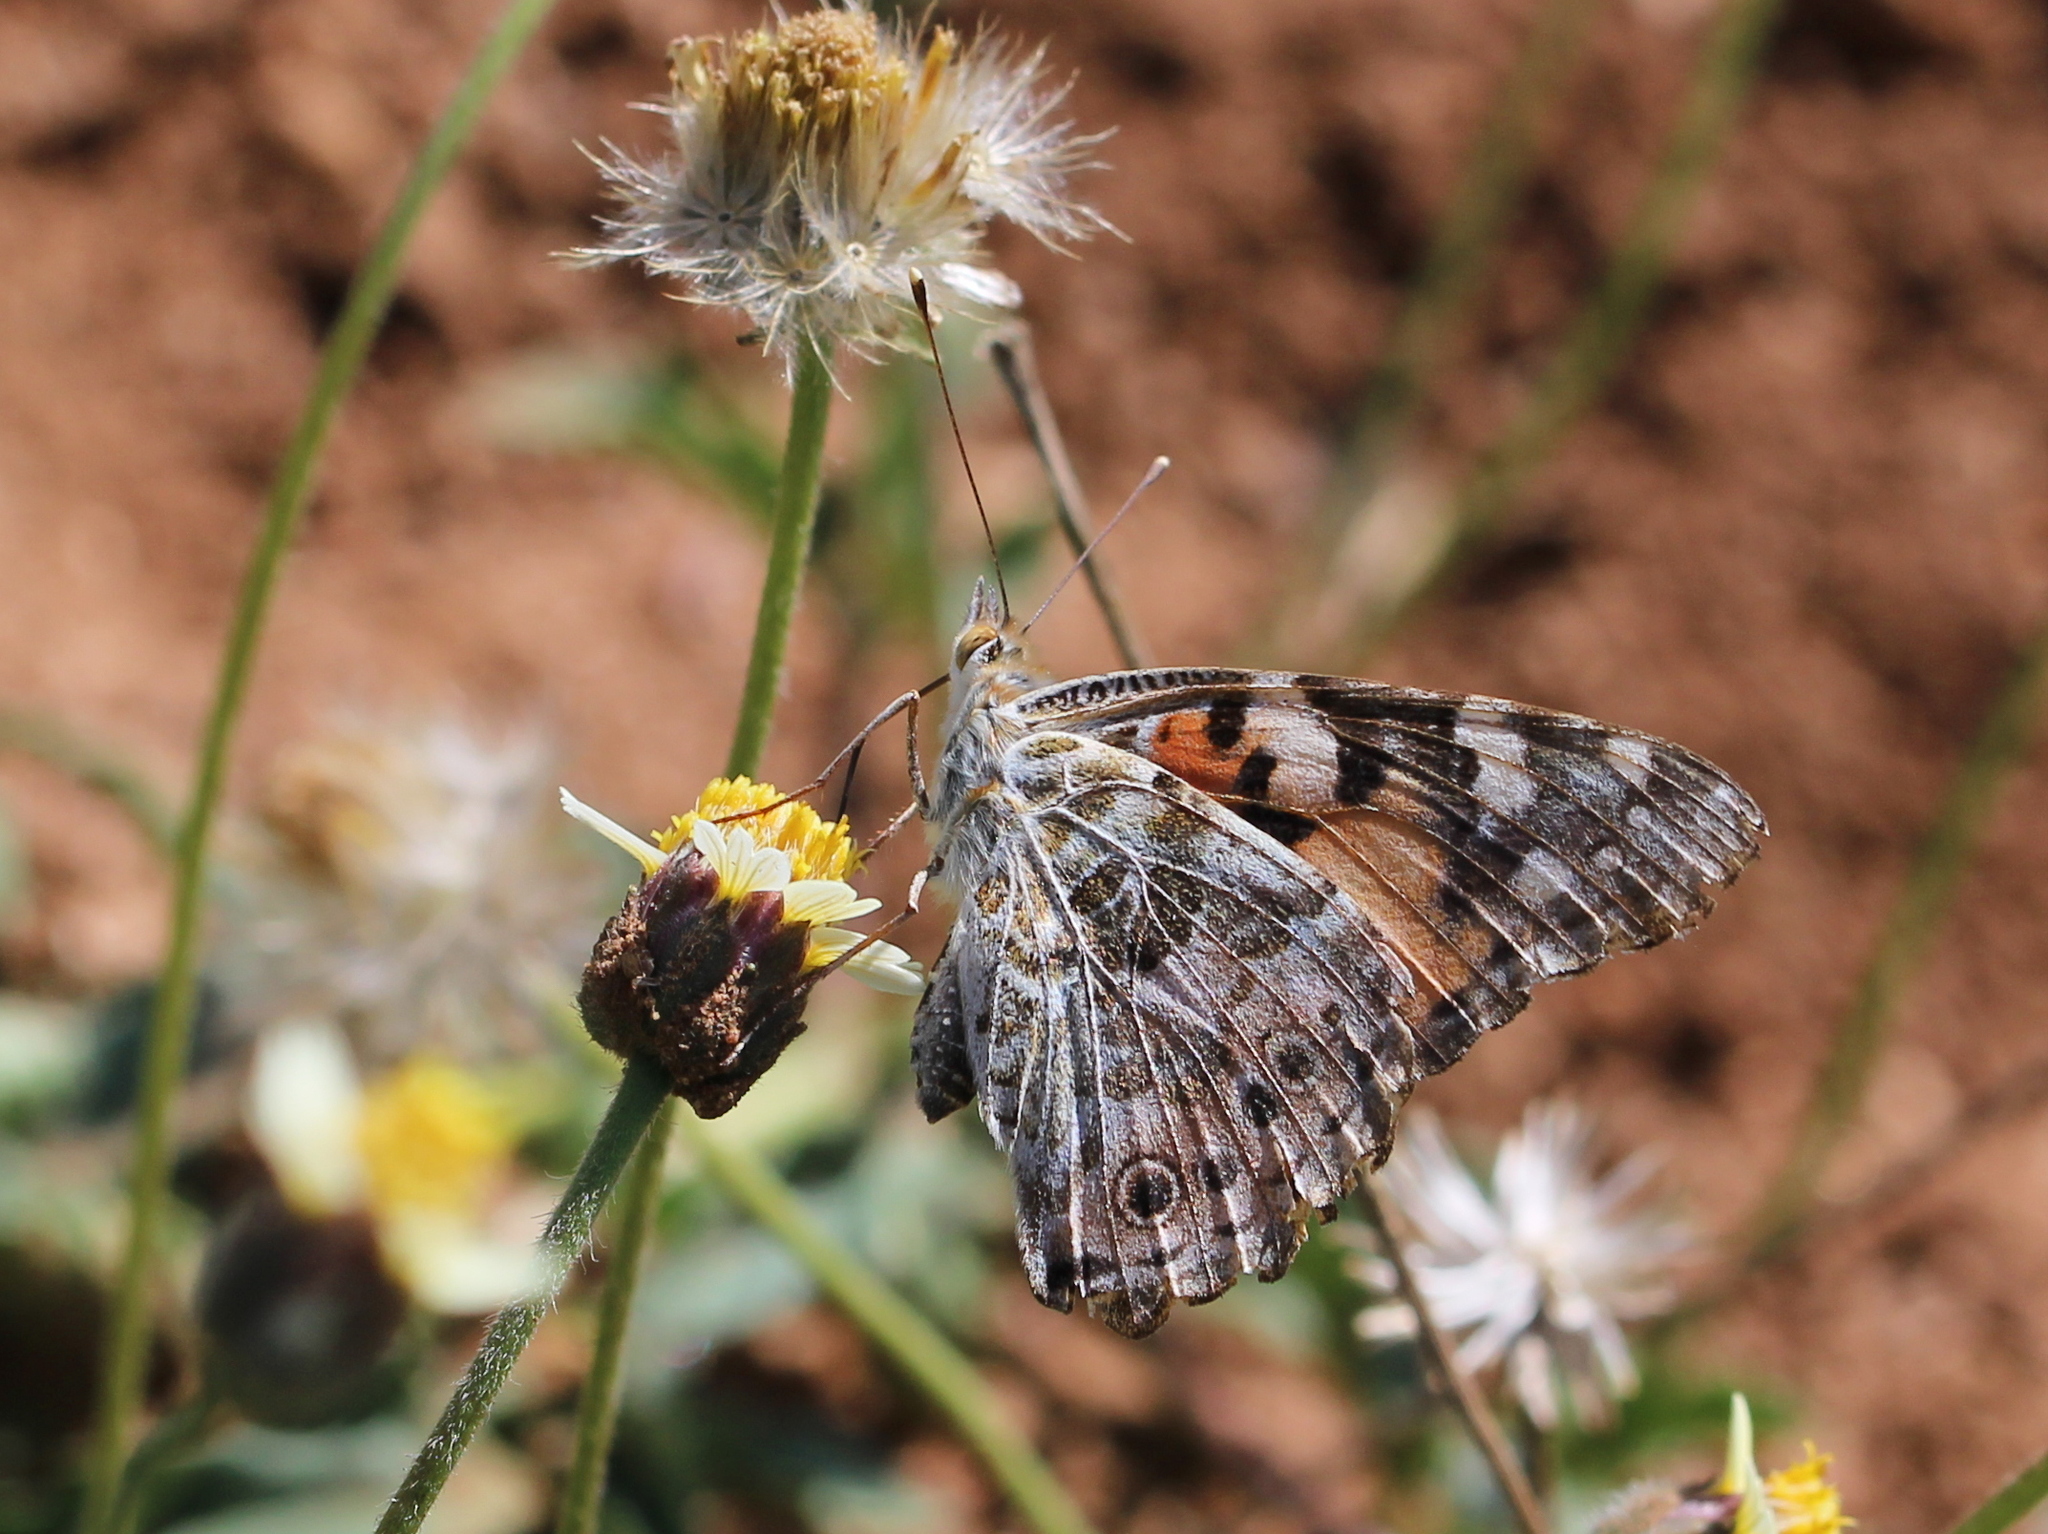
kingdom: Animalia
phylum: Arthropoda
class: Insecta
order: Lepidoptera
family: Nymphalidae
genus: Vanessa
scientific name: Vanessa cardui
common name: Painted lady
